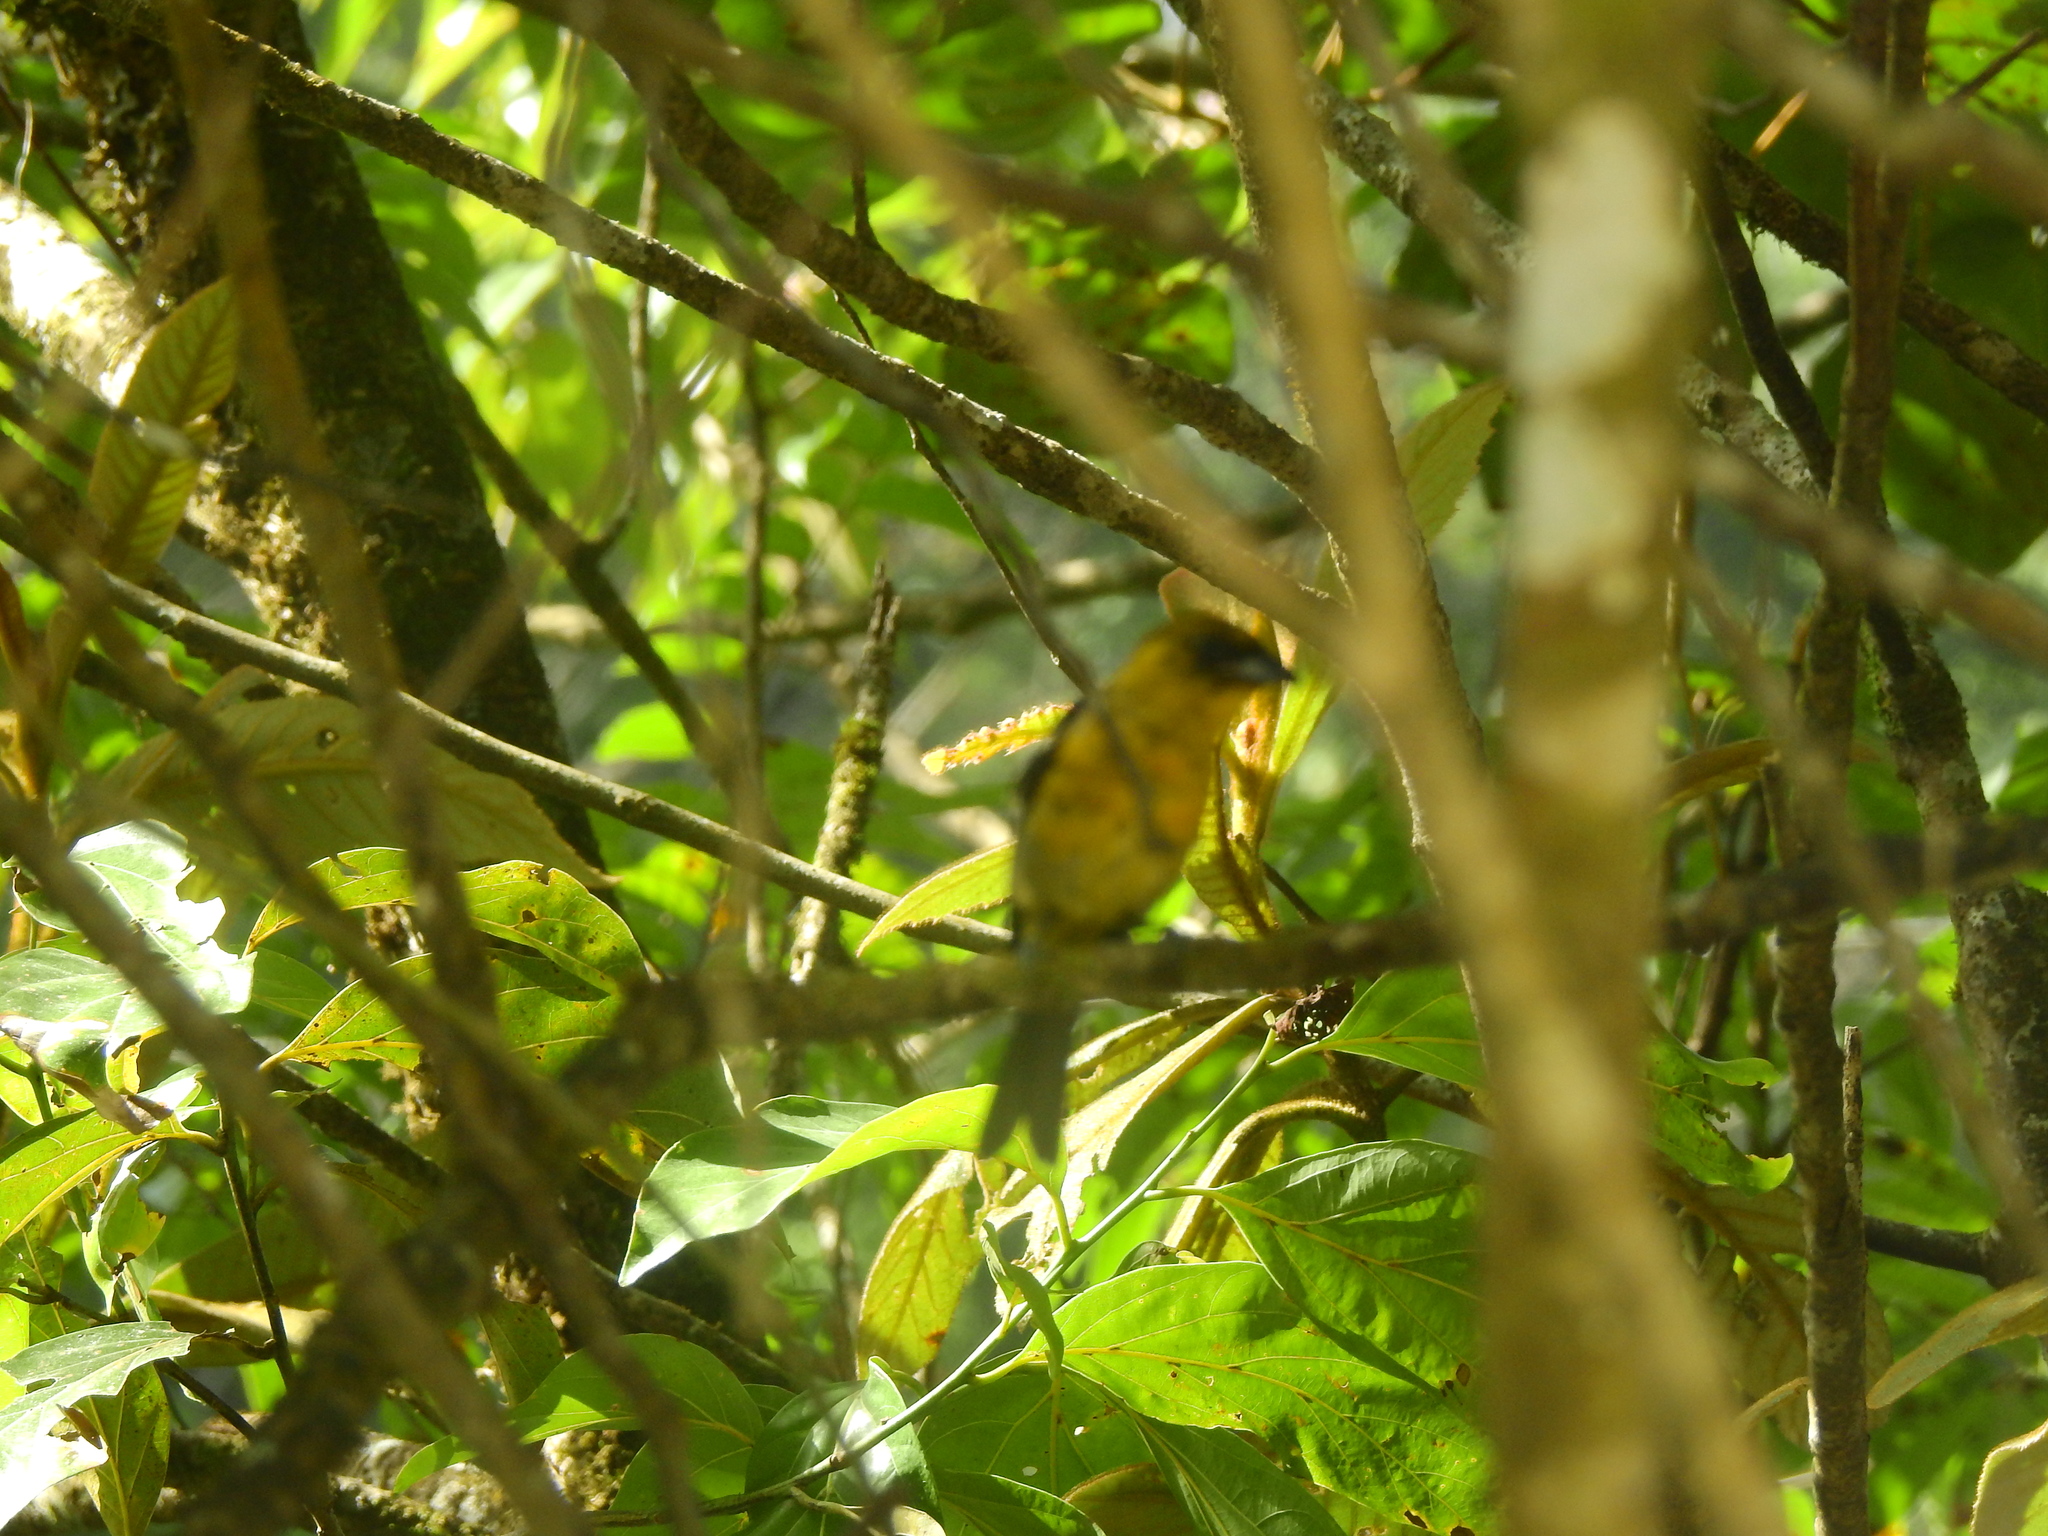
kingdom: Animalia
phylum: Chordata
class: Aves
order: Passeriformes
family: Cardinalidae
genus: Piranga
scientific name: Piranga leucoptera
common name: White-winged tanager
